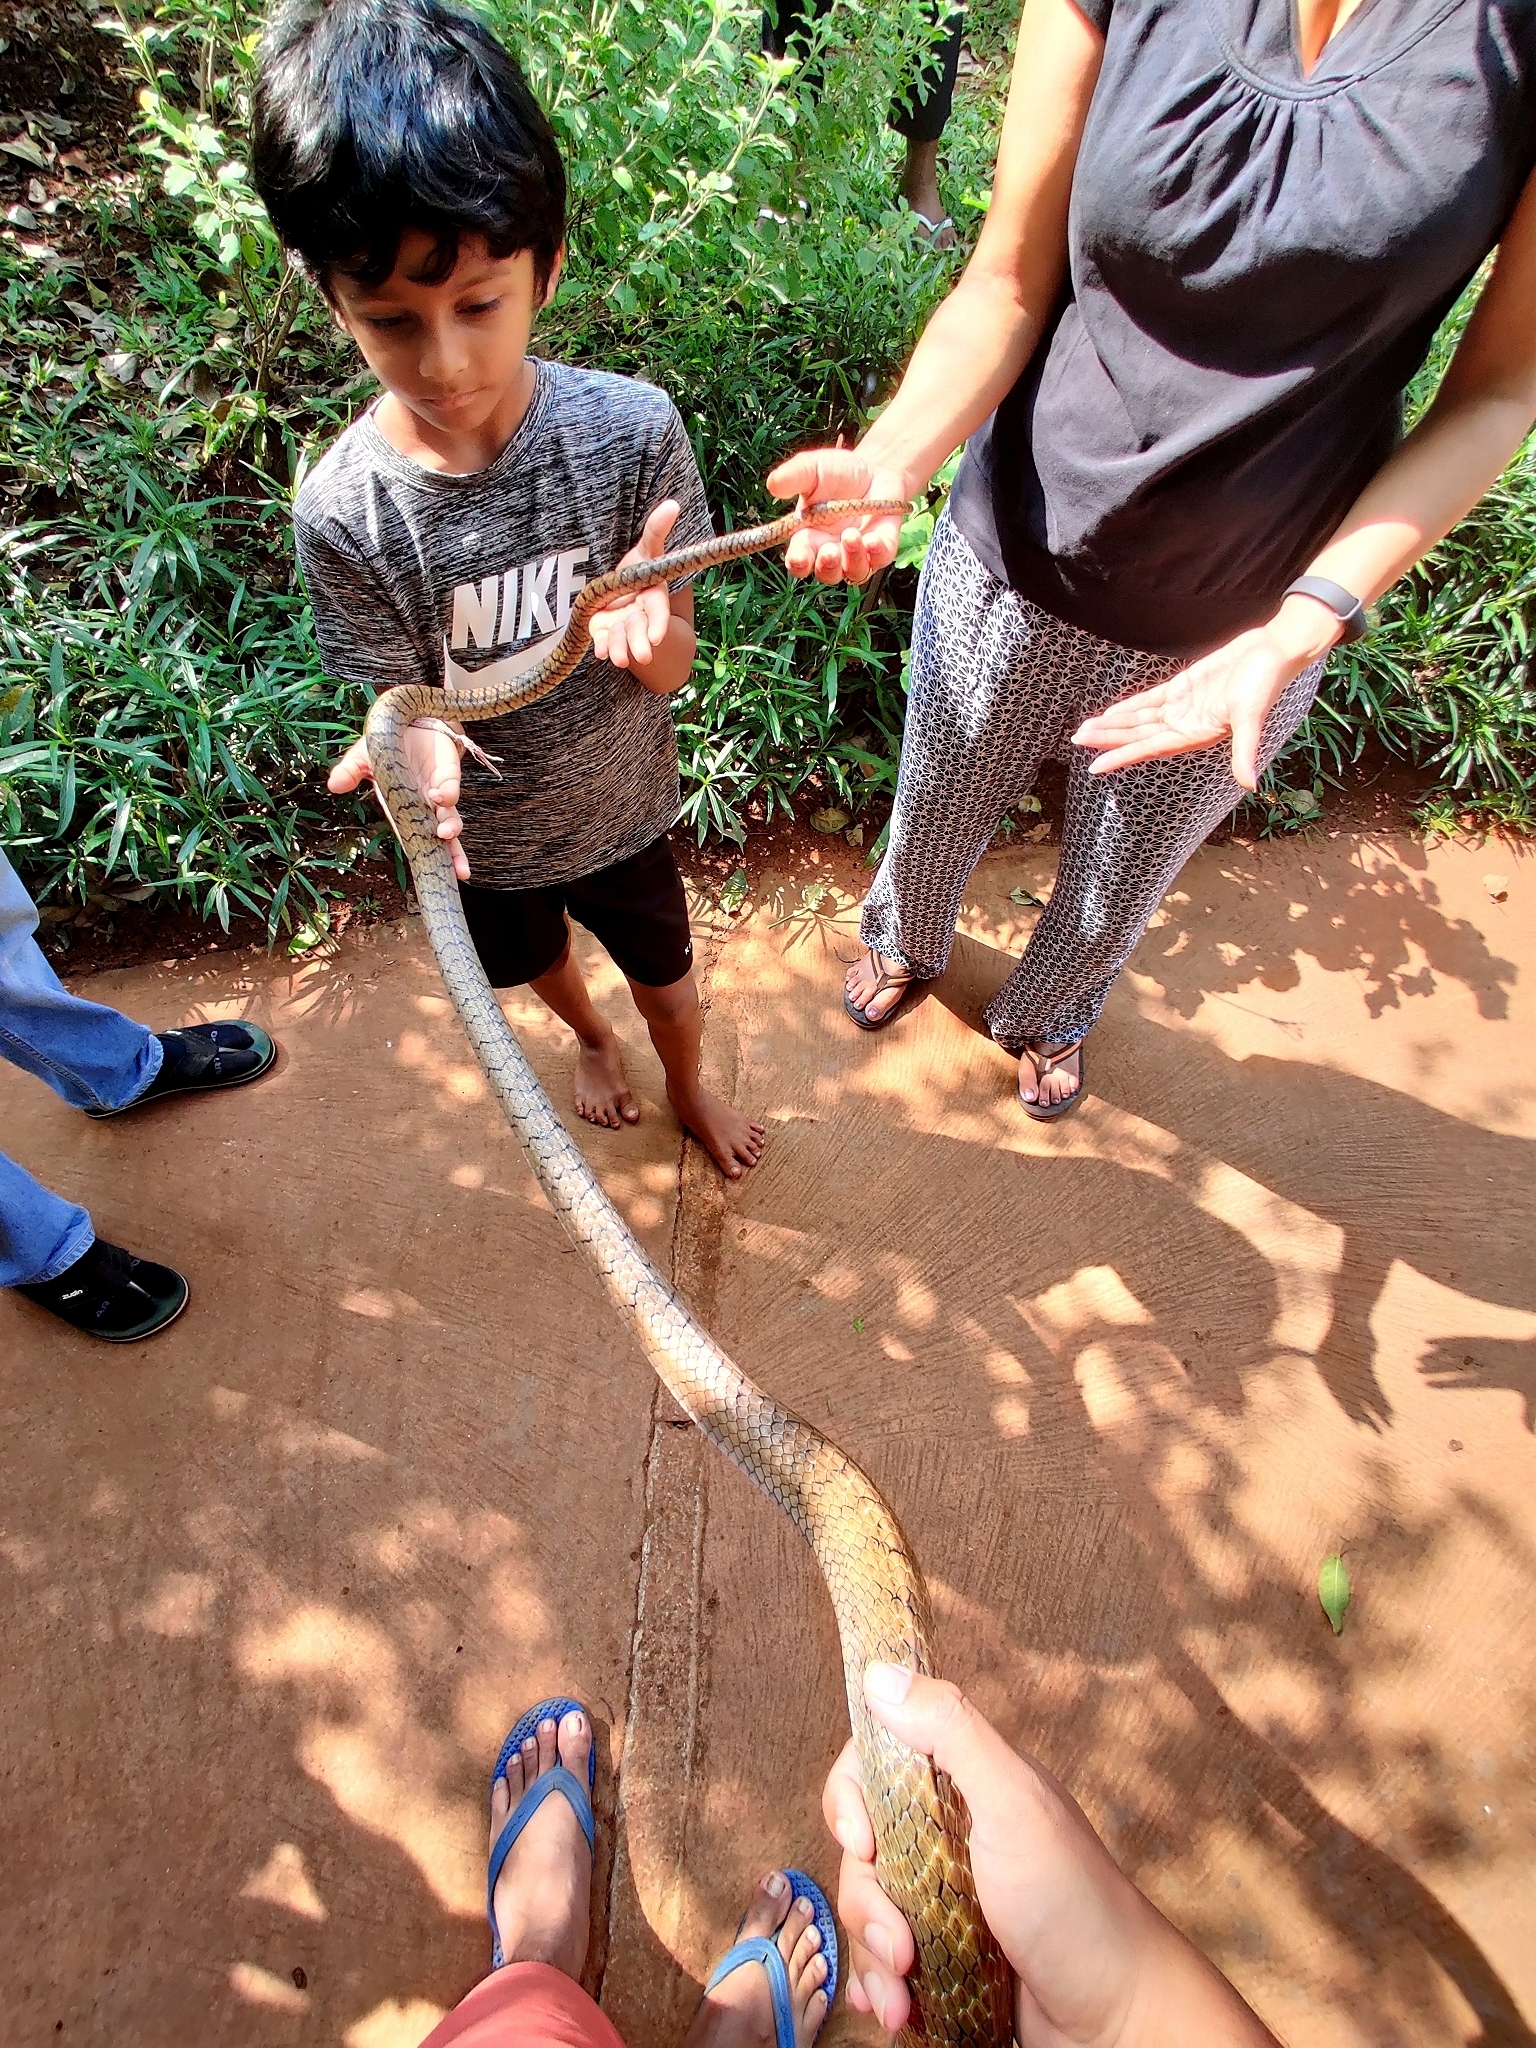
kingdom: Animalia
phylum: Chordata
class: Squamata
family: Colubridae
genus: Ptyas
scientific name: Ptyas mucosa
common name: Oriental ratsnake
